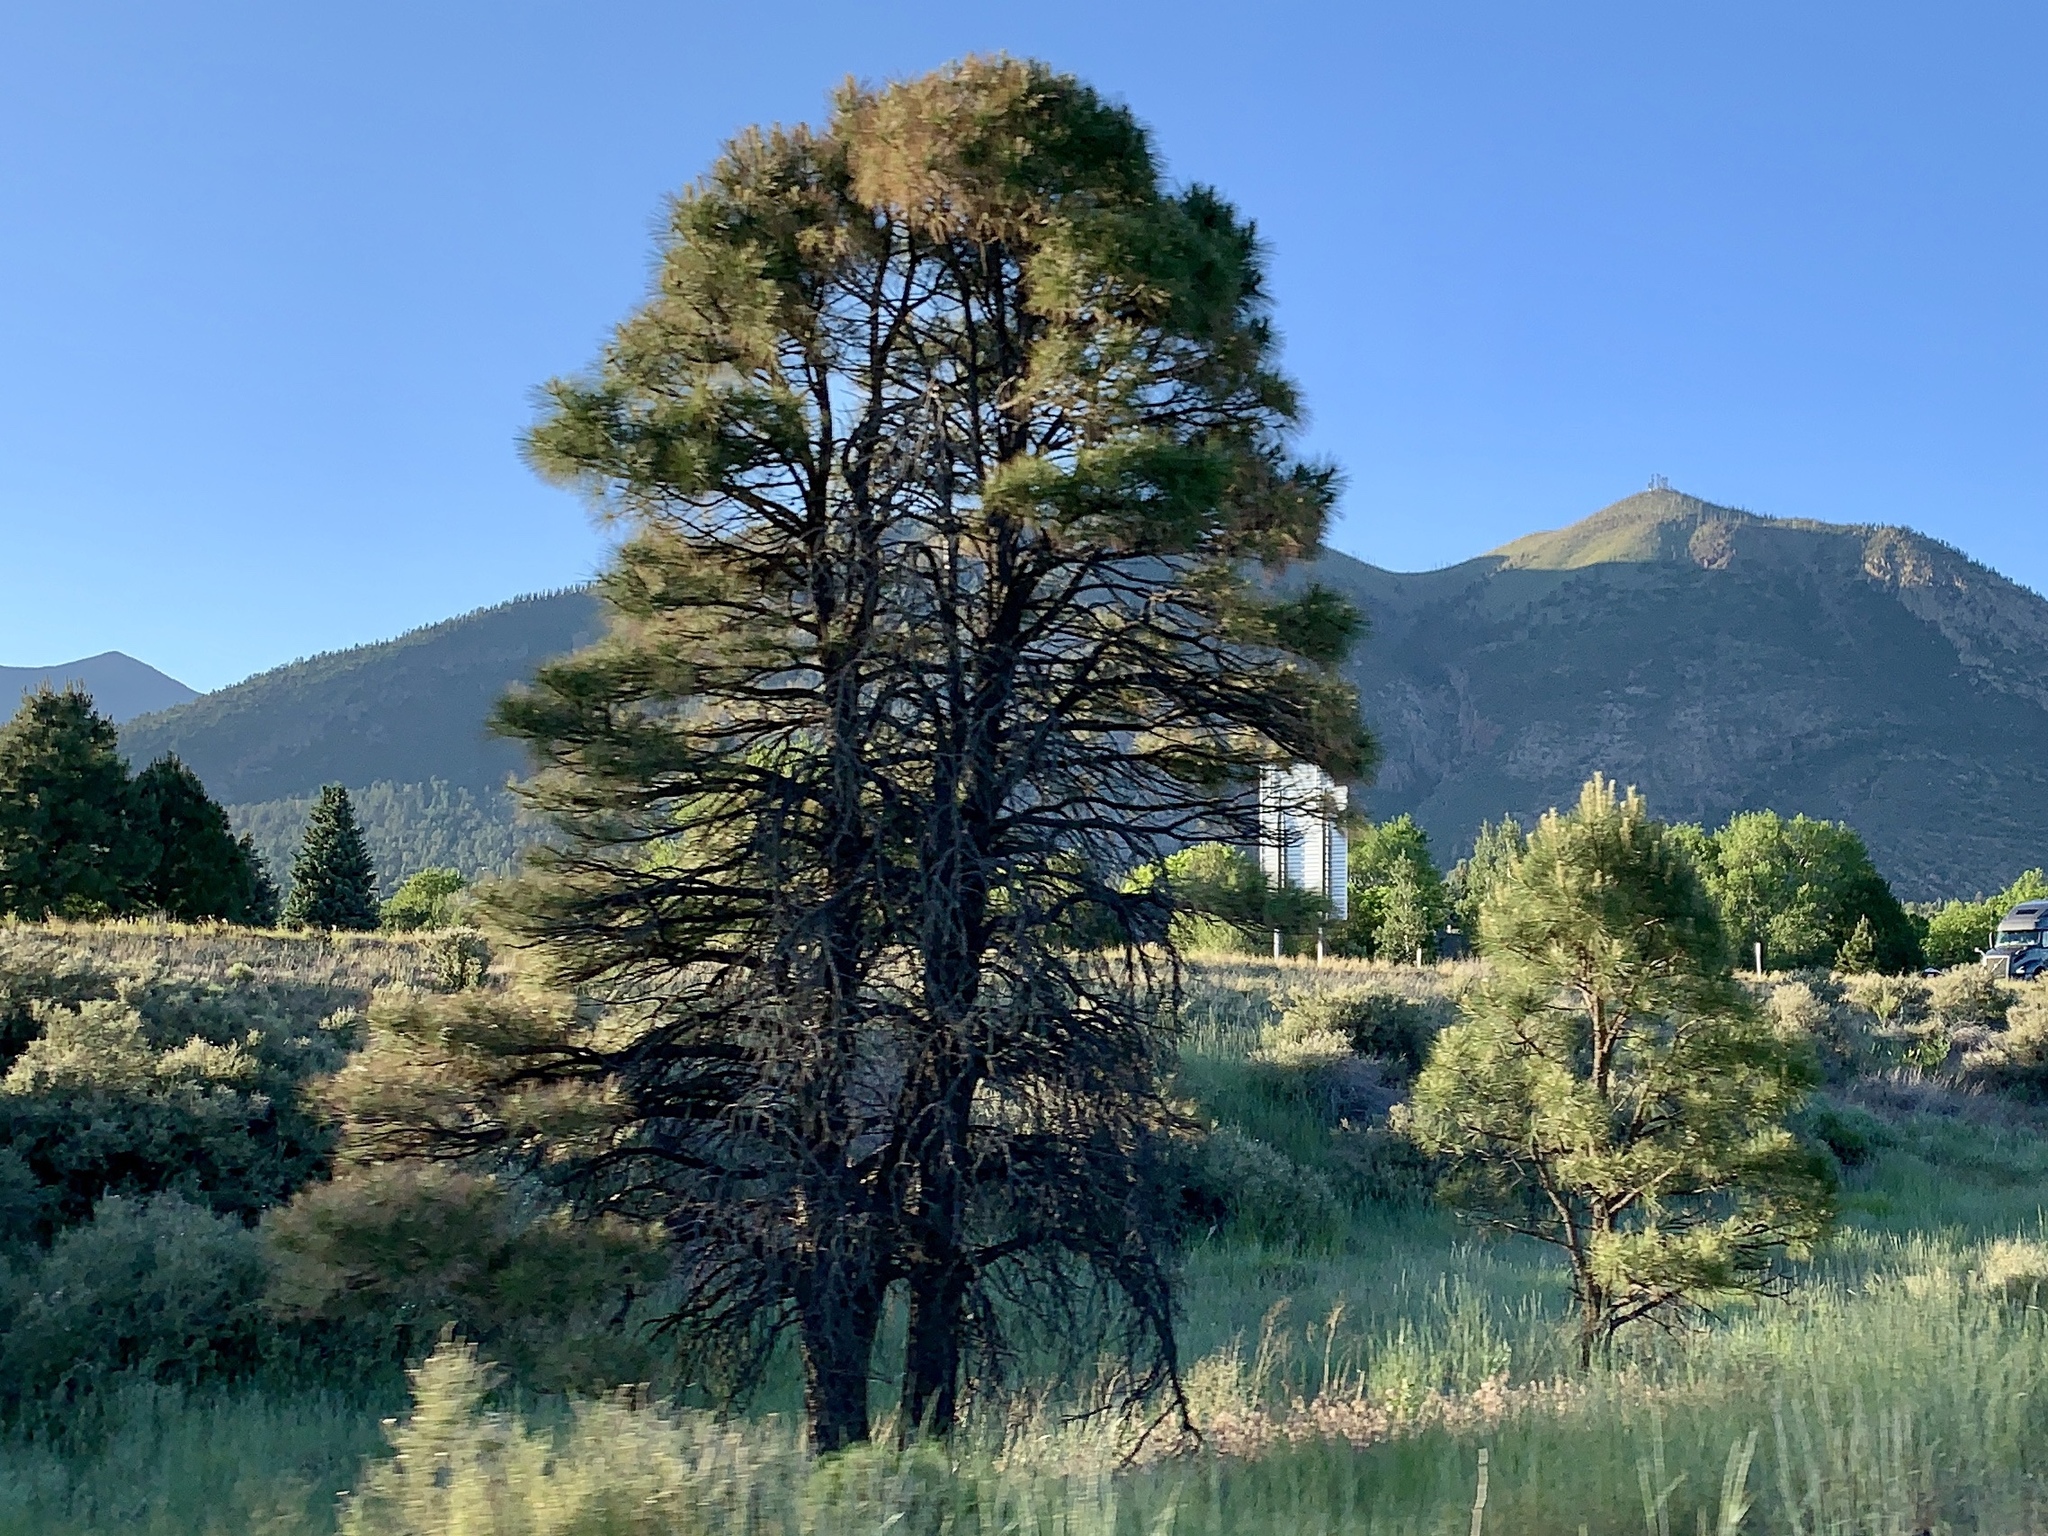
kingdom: Plantae
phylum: Tracheophyta
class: Pinopsida
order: Pinales
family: Pinaceae
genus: Pinus
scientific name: Pinus ponderosa
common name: Western yellow-pine
